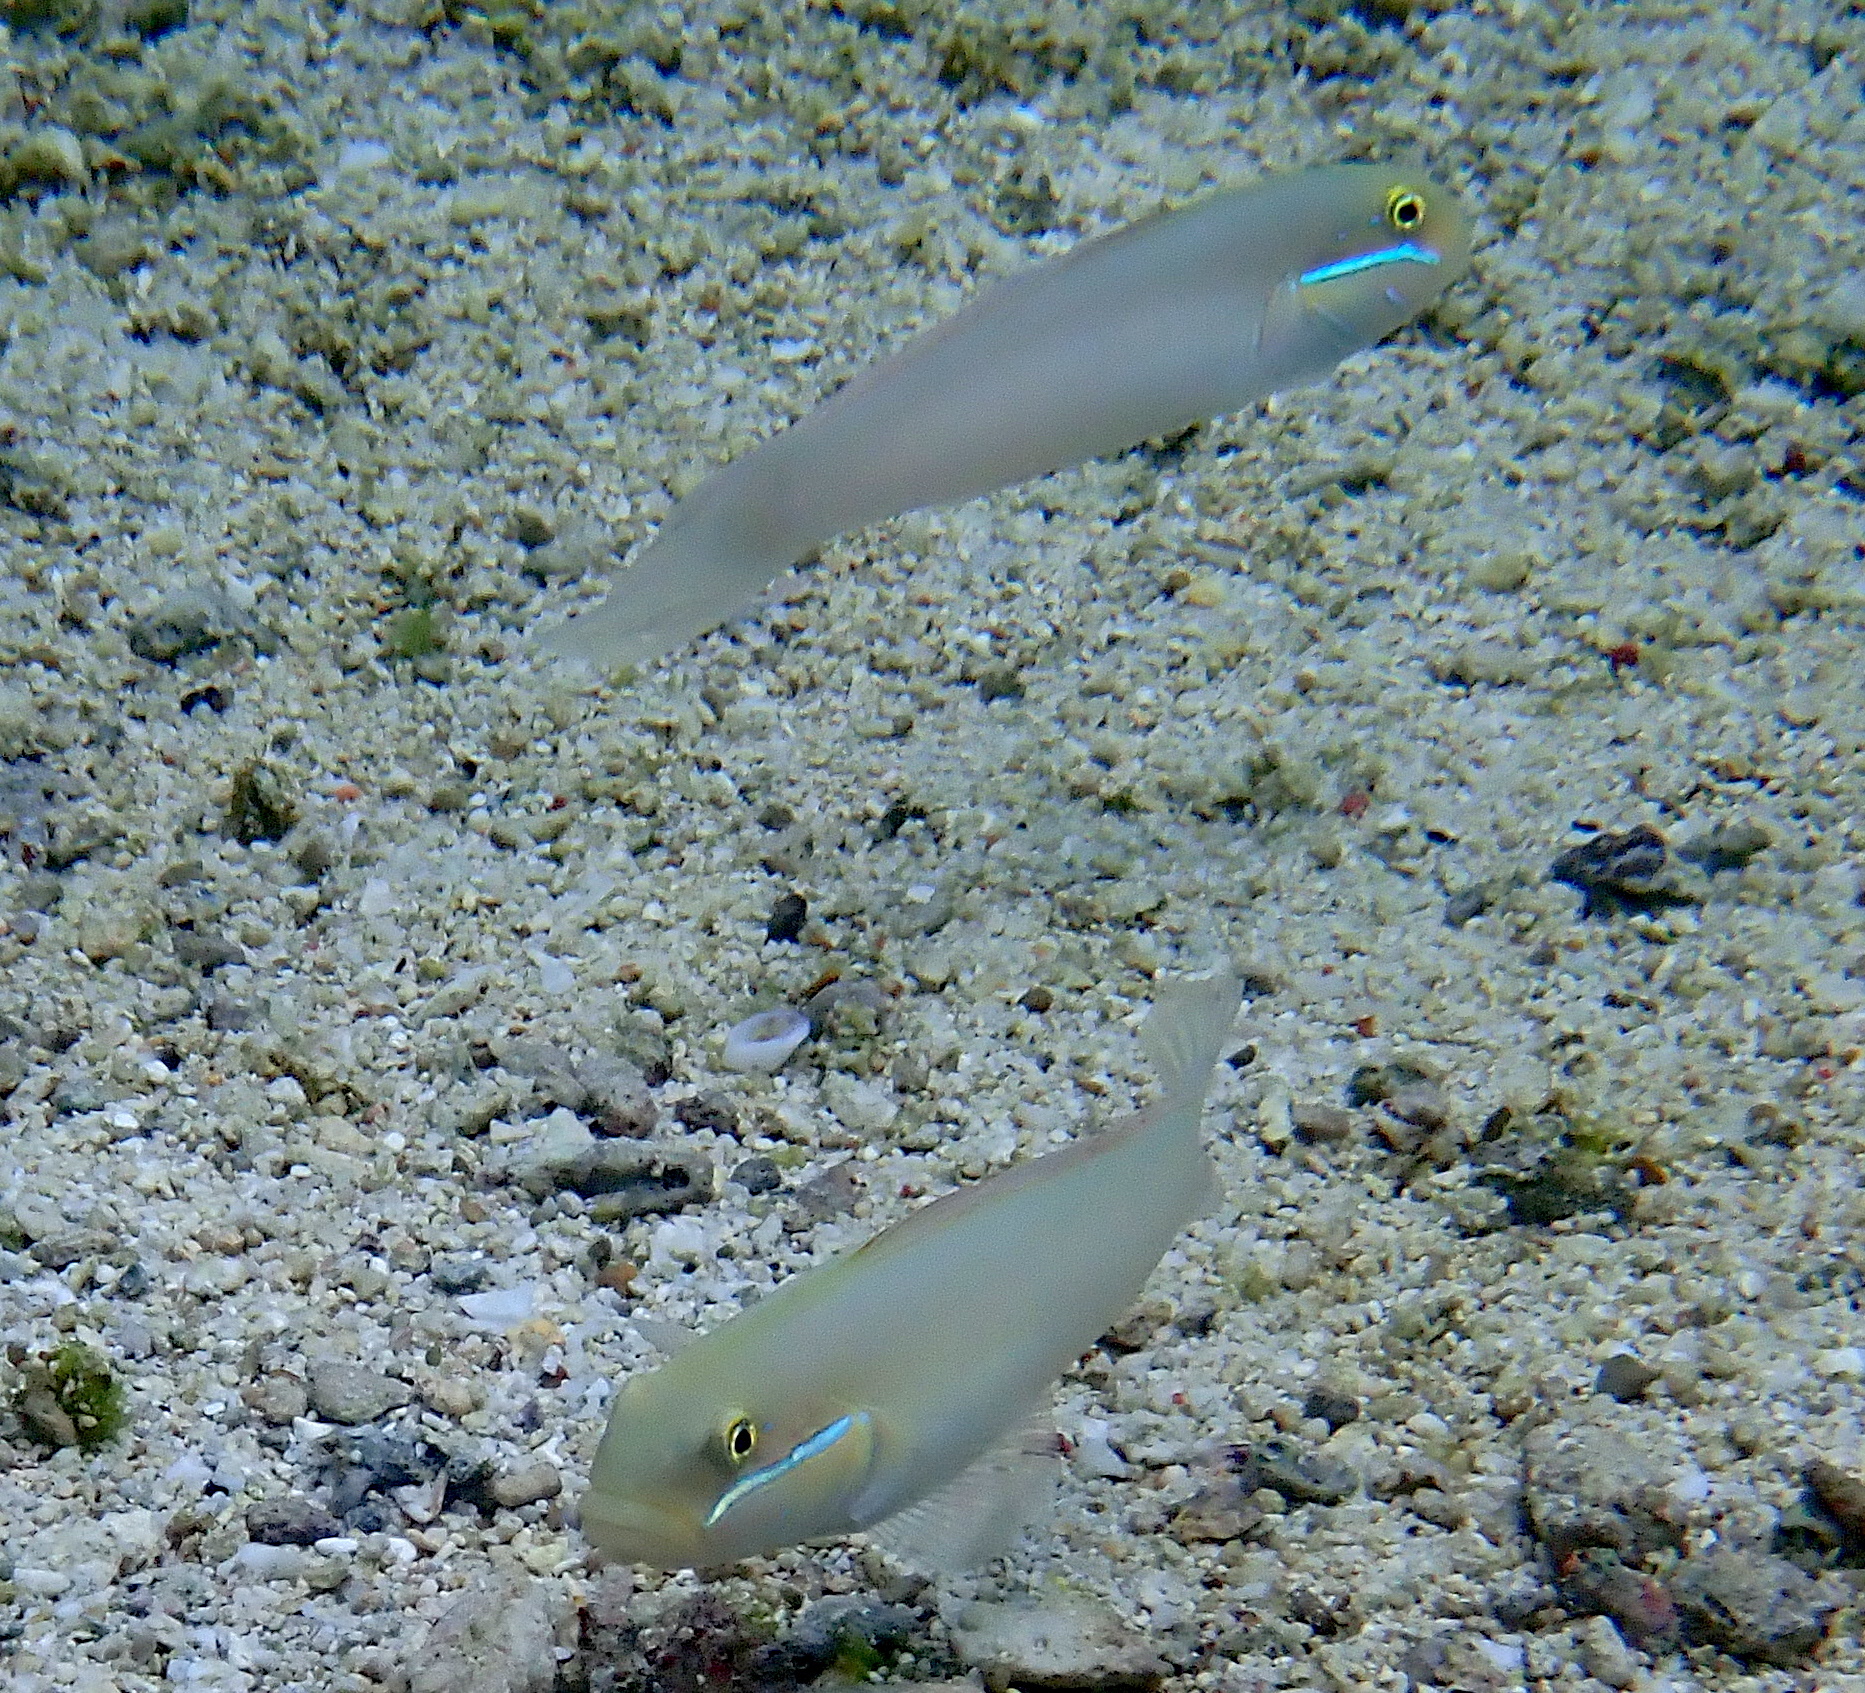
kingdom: Animalia
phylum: Chordata
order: Perciformes
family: Gobiidae
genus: Valenciennea
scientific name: Valenciennea strigata
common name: Blueband goby
